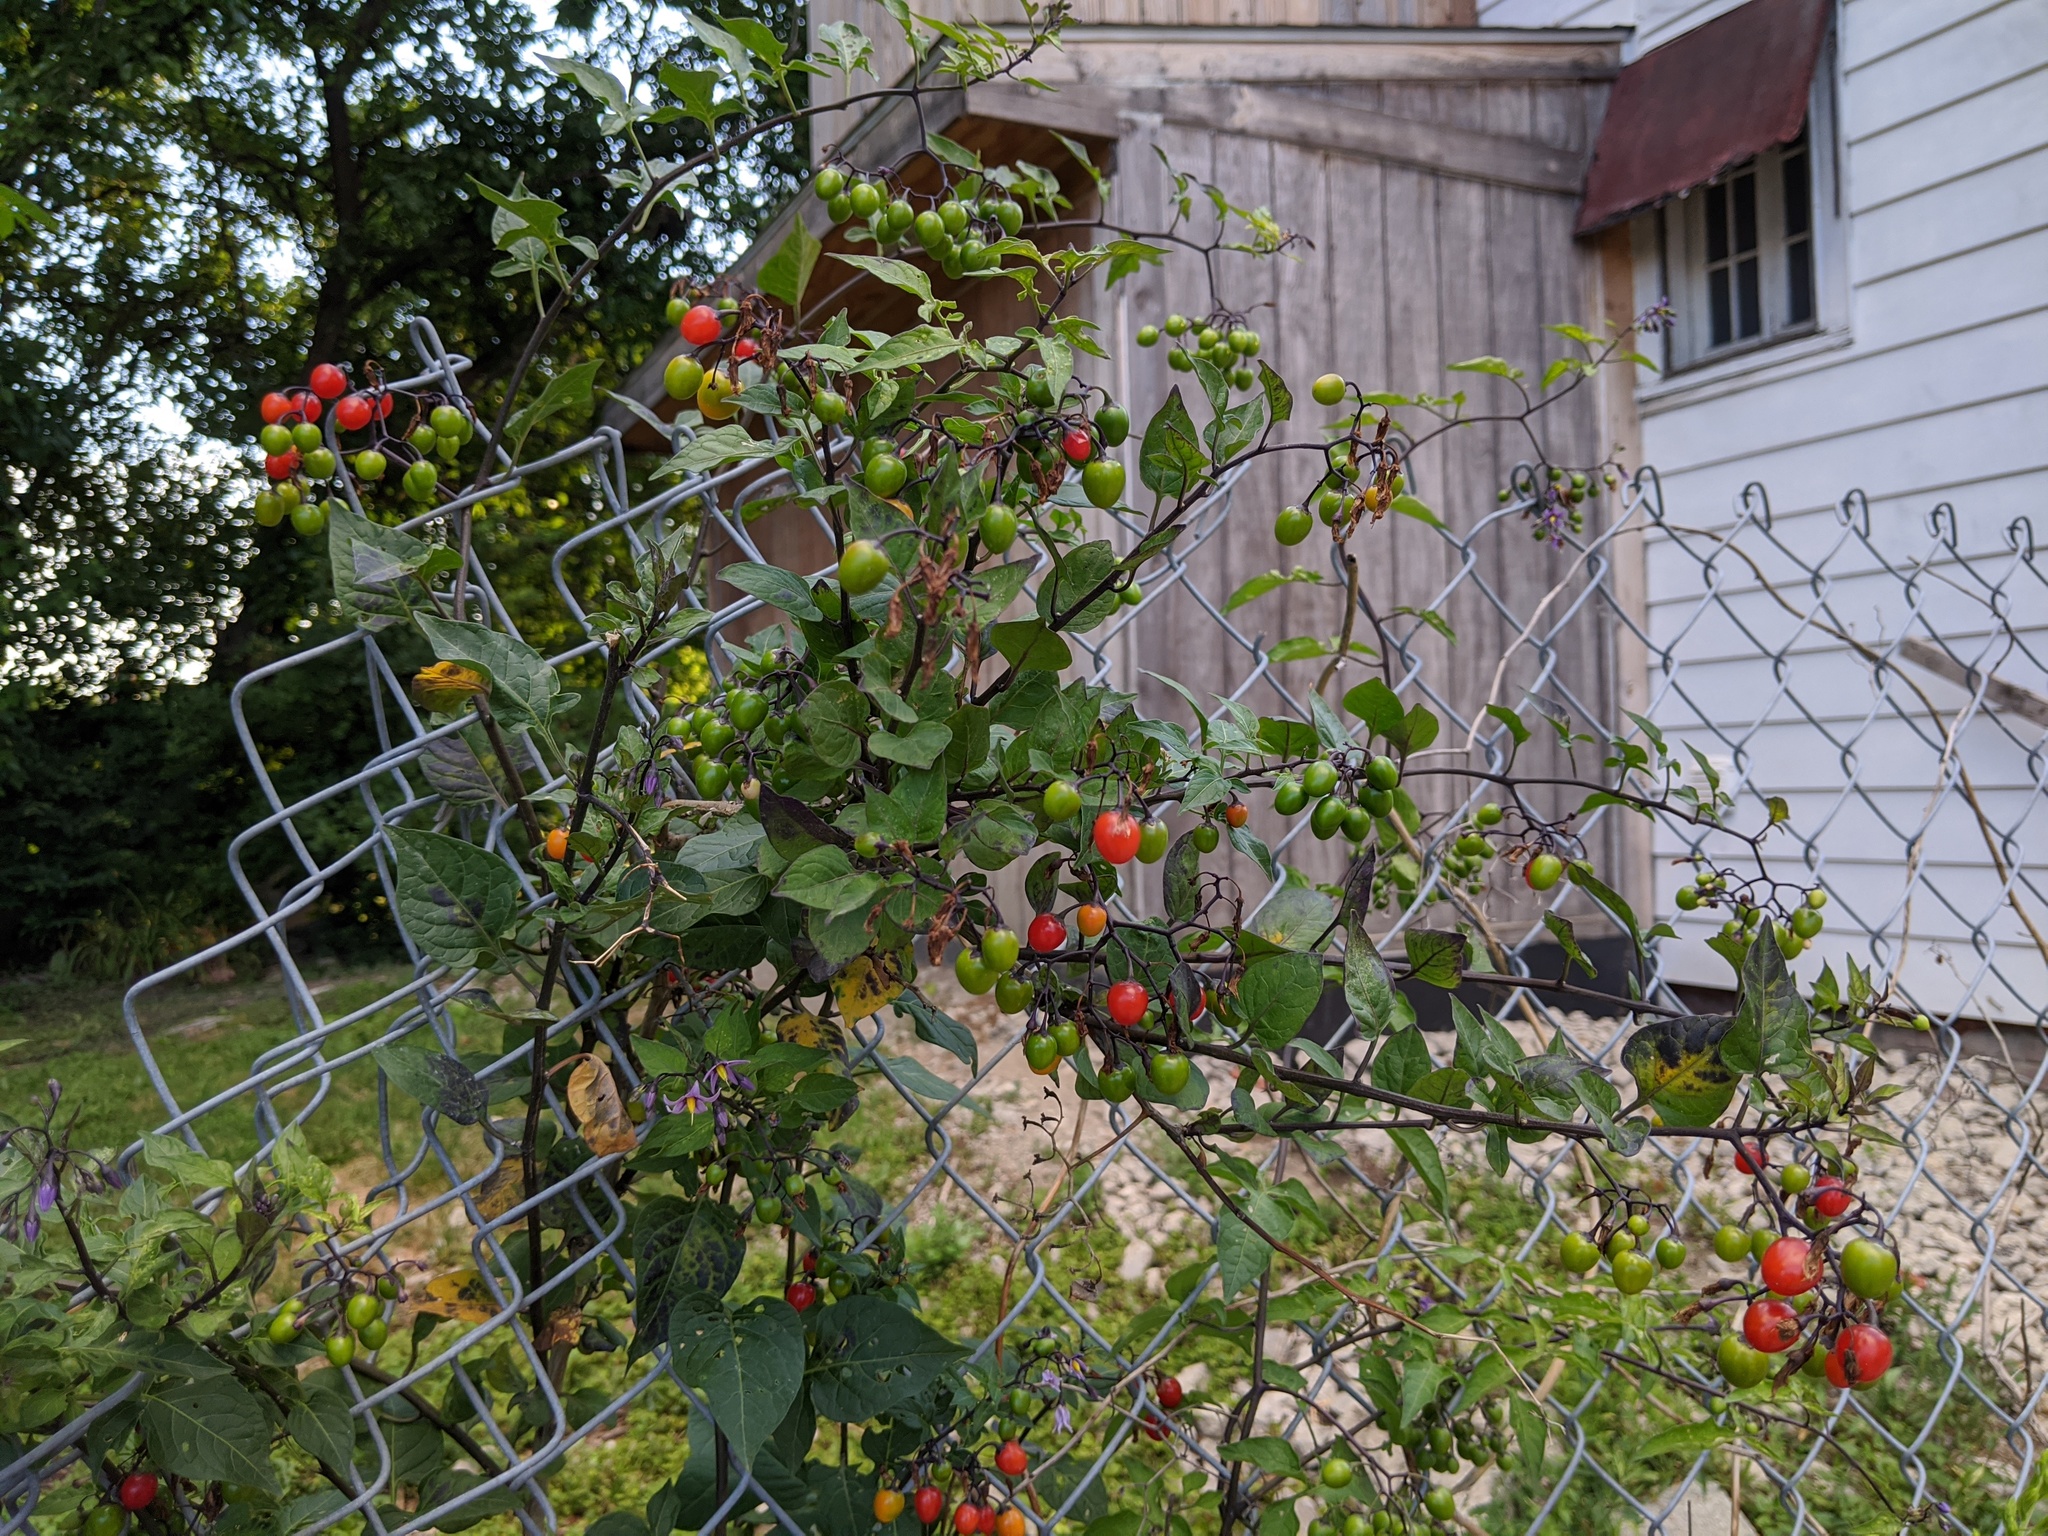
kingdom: Plantae
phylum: Tracheophyta
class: Magnoliopsida
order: Solanales
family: Solanaceae
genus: Solanum
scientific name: Solanum dulcamara
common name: Climbing nightshade
